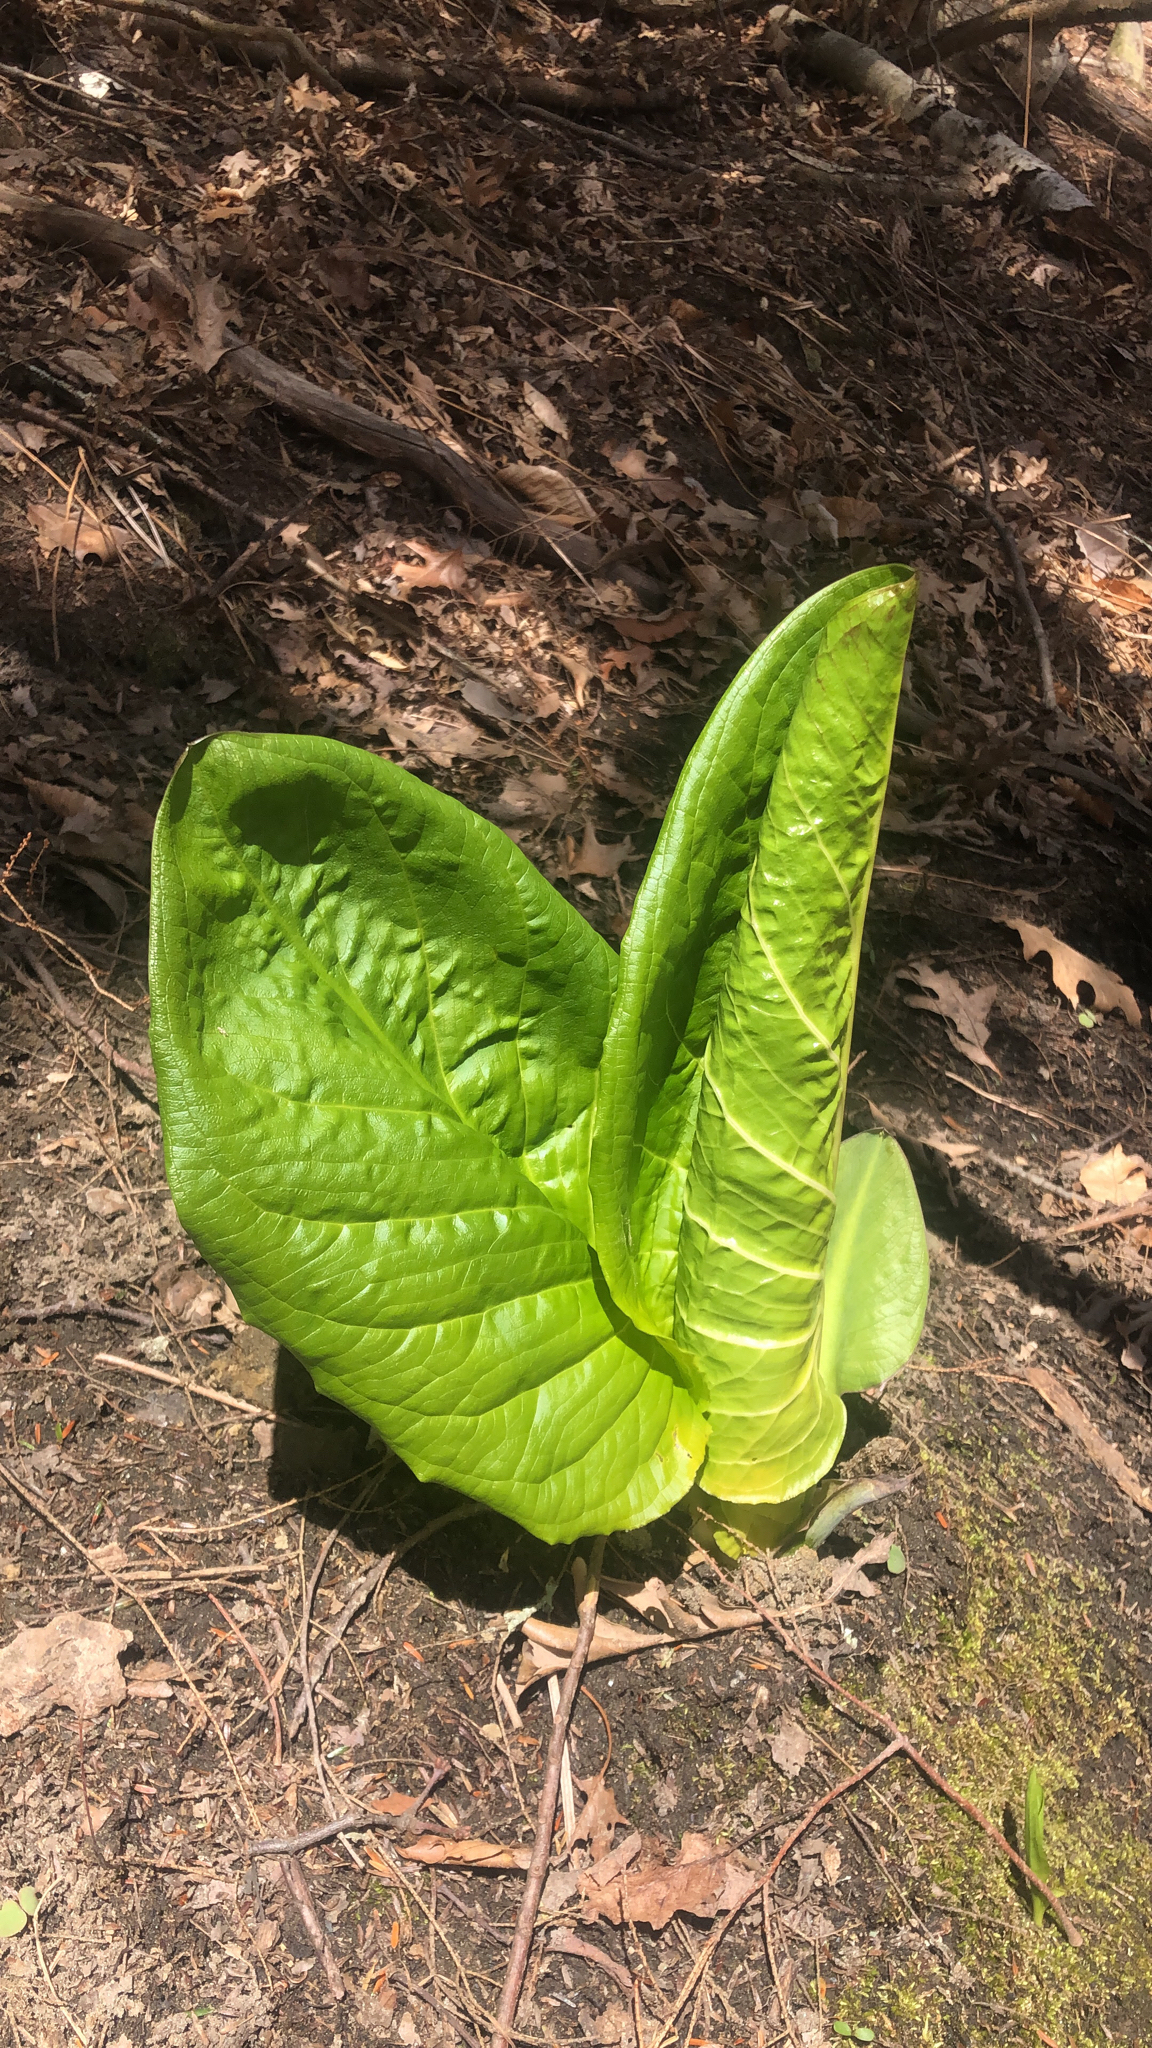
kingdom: Plantae
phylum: Tracheophyta
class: Liliopsida
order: Alismatales
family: Araceae
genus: Symplocarpus
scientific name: Symplocarpus foetidus
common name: Eastern skunk cabbage
